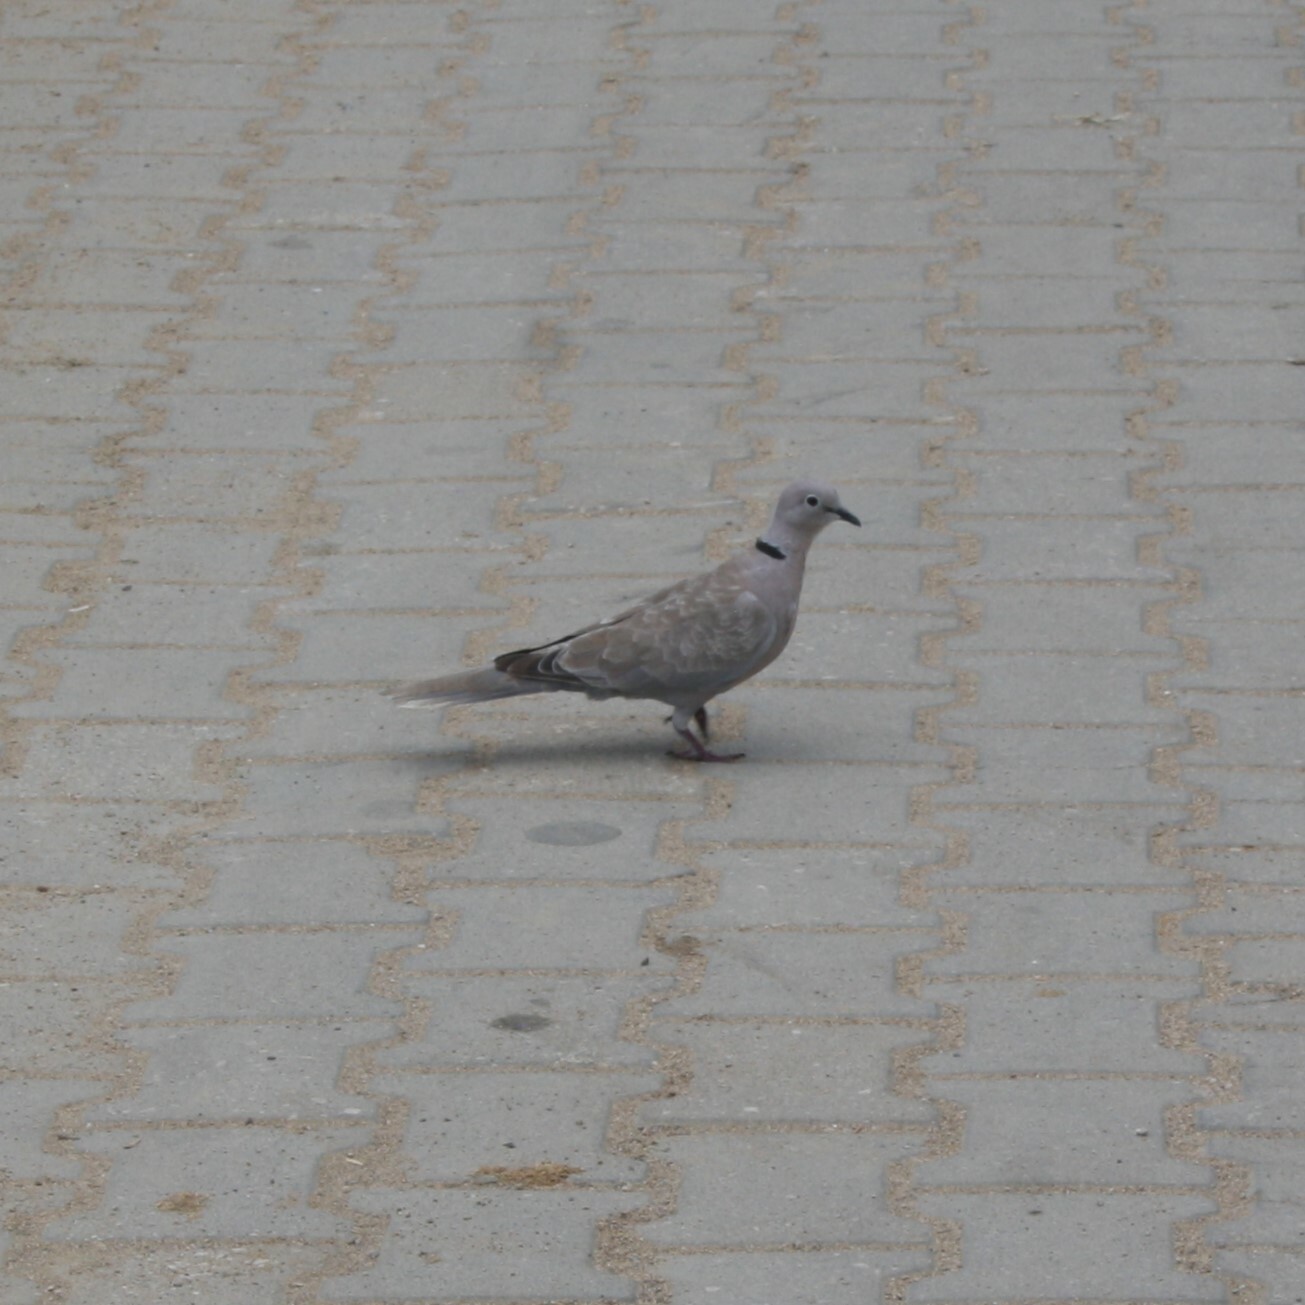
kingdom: Animalia
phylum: Chordata
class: Aves
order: Columbiformes
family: Columbidae
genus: Streptopelia
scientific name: Streptopelia decaocto
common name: Eurasian collared dove
